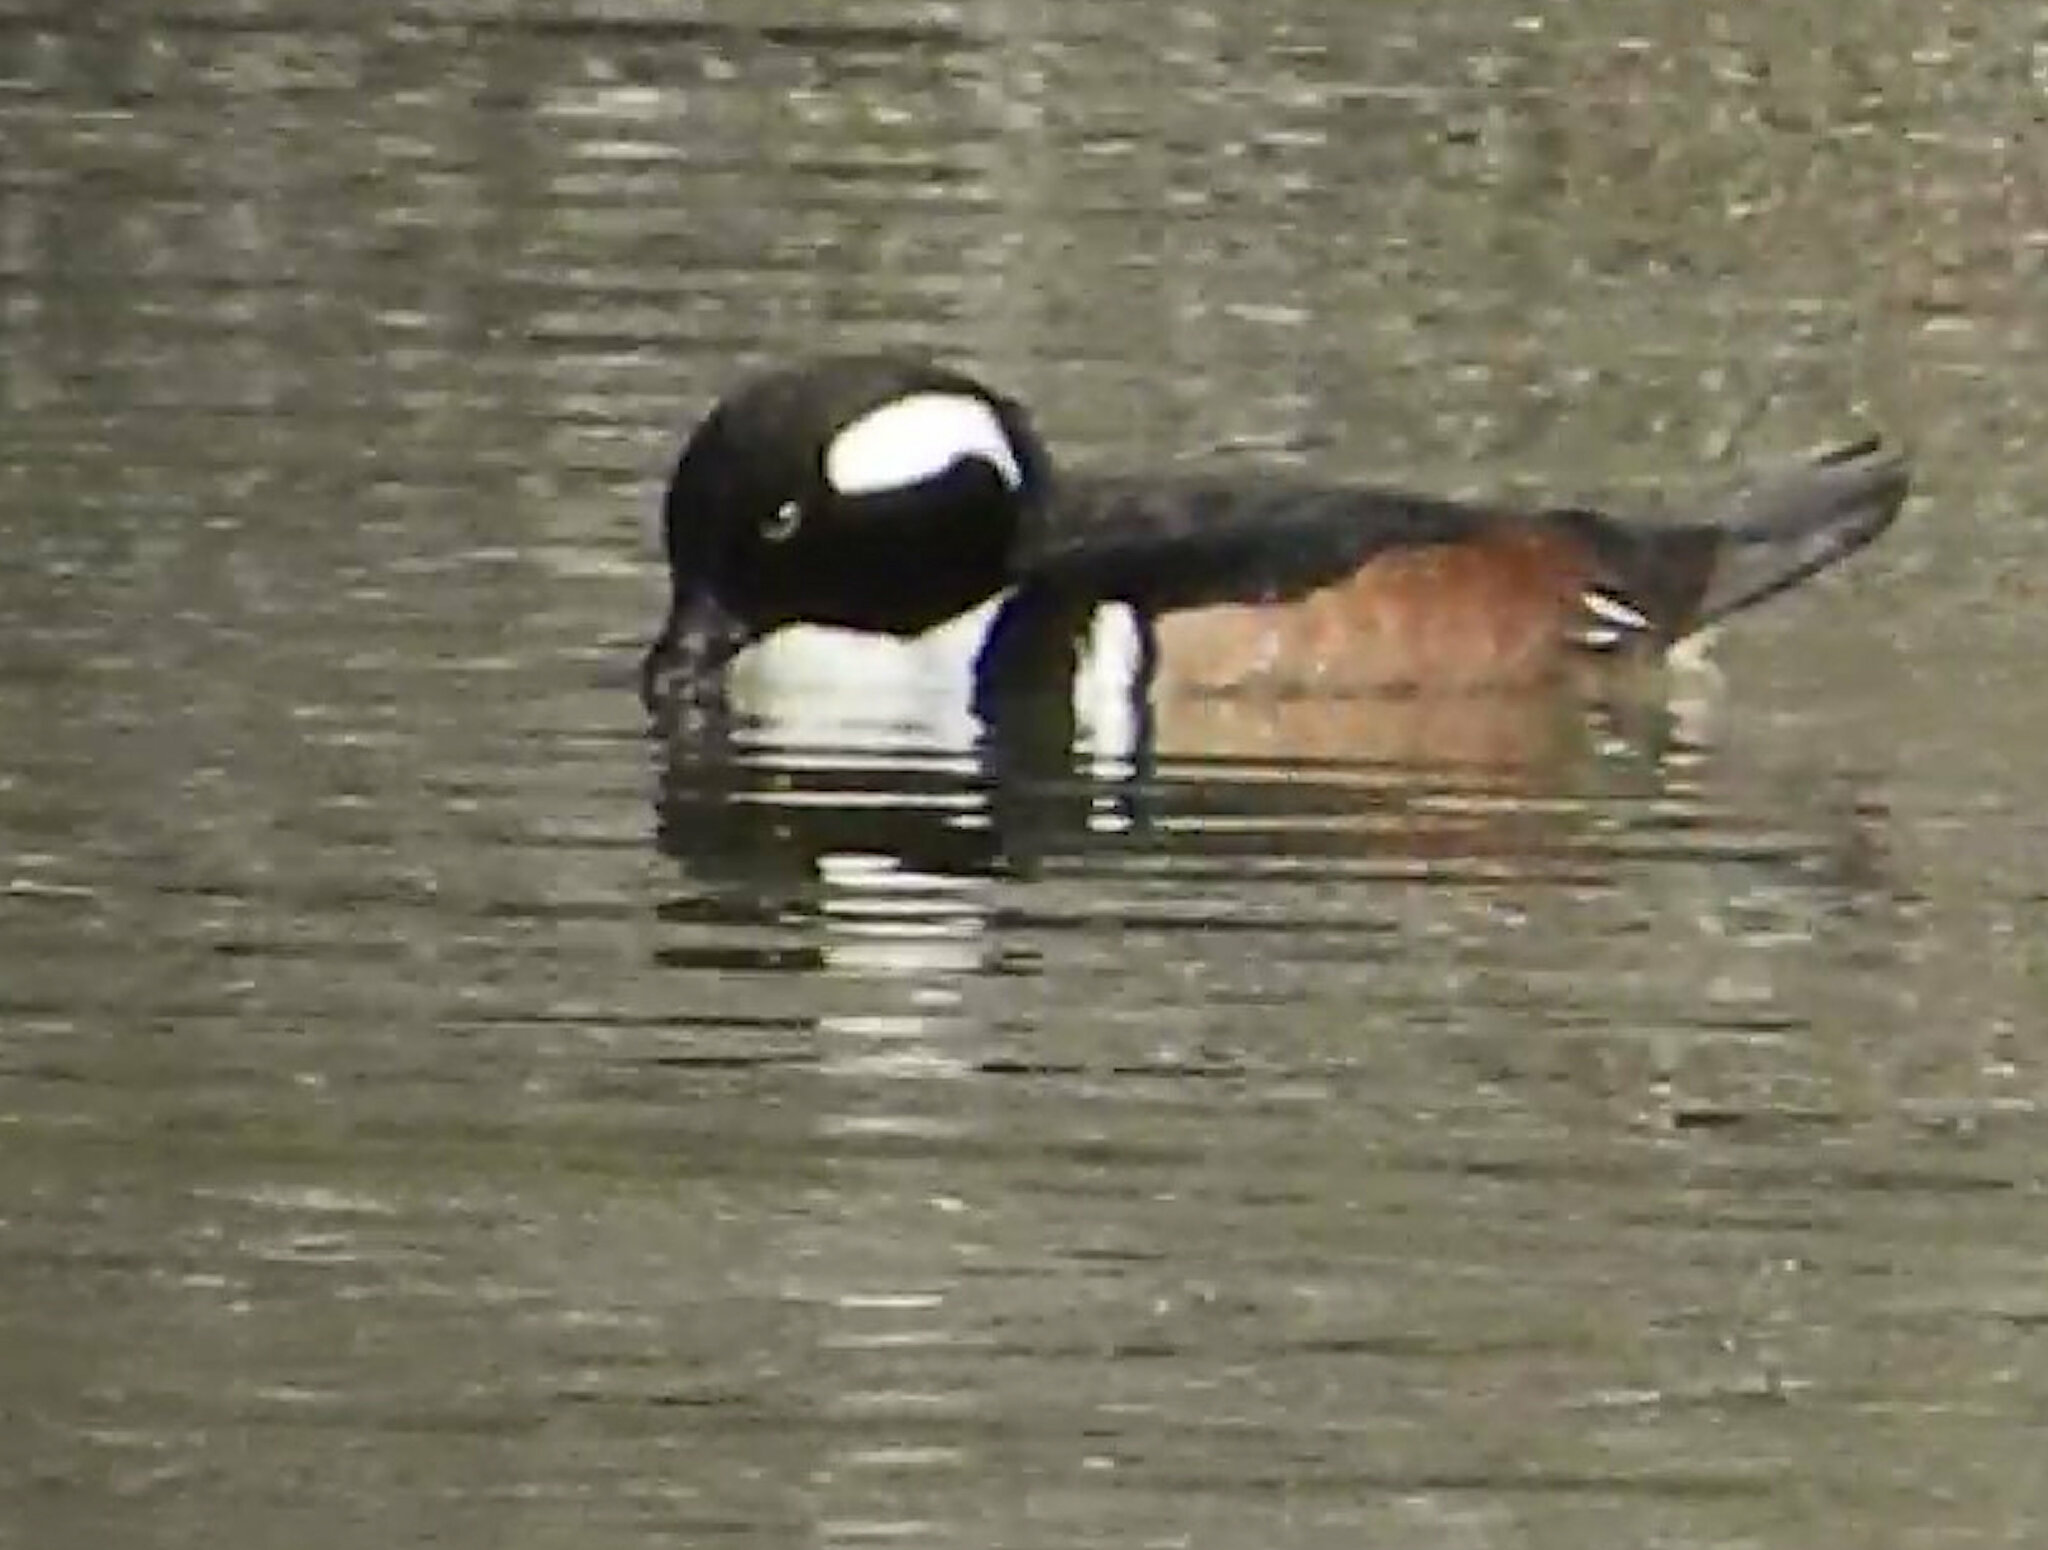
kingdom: Animalia
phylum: Chordata
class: Aves
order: Anseriformes
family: Anatidae
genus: Lophodytes
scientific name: Lophodytes cucullatus
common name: Hooded merganser
